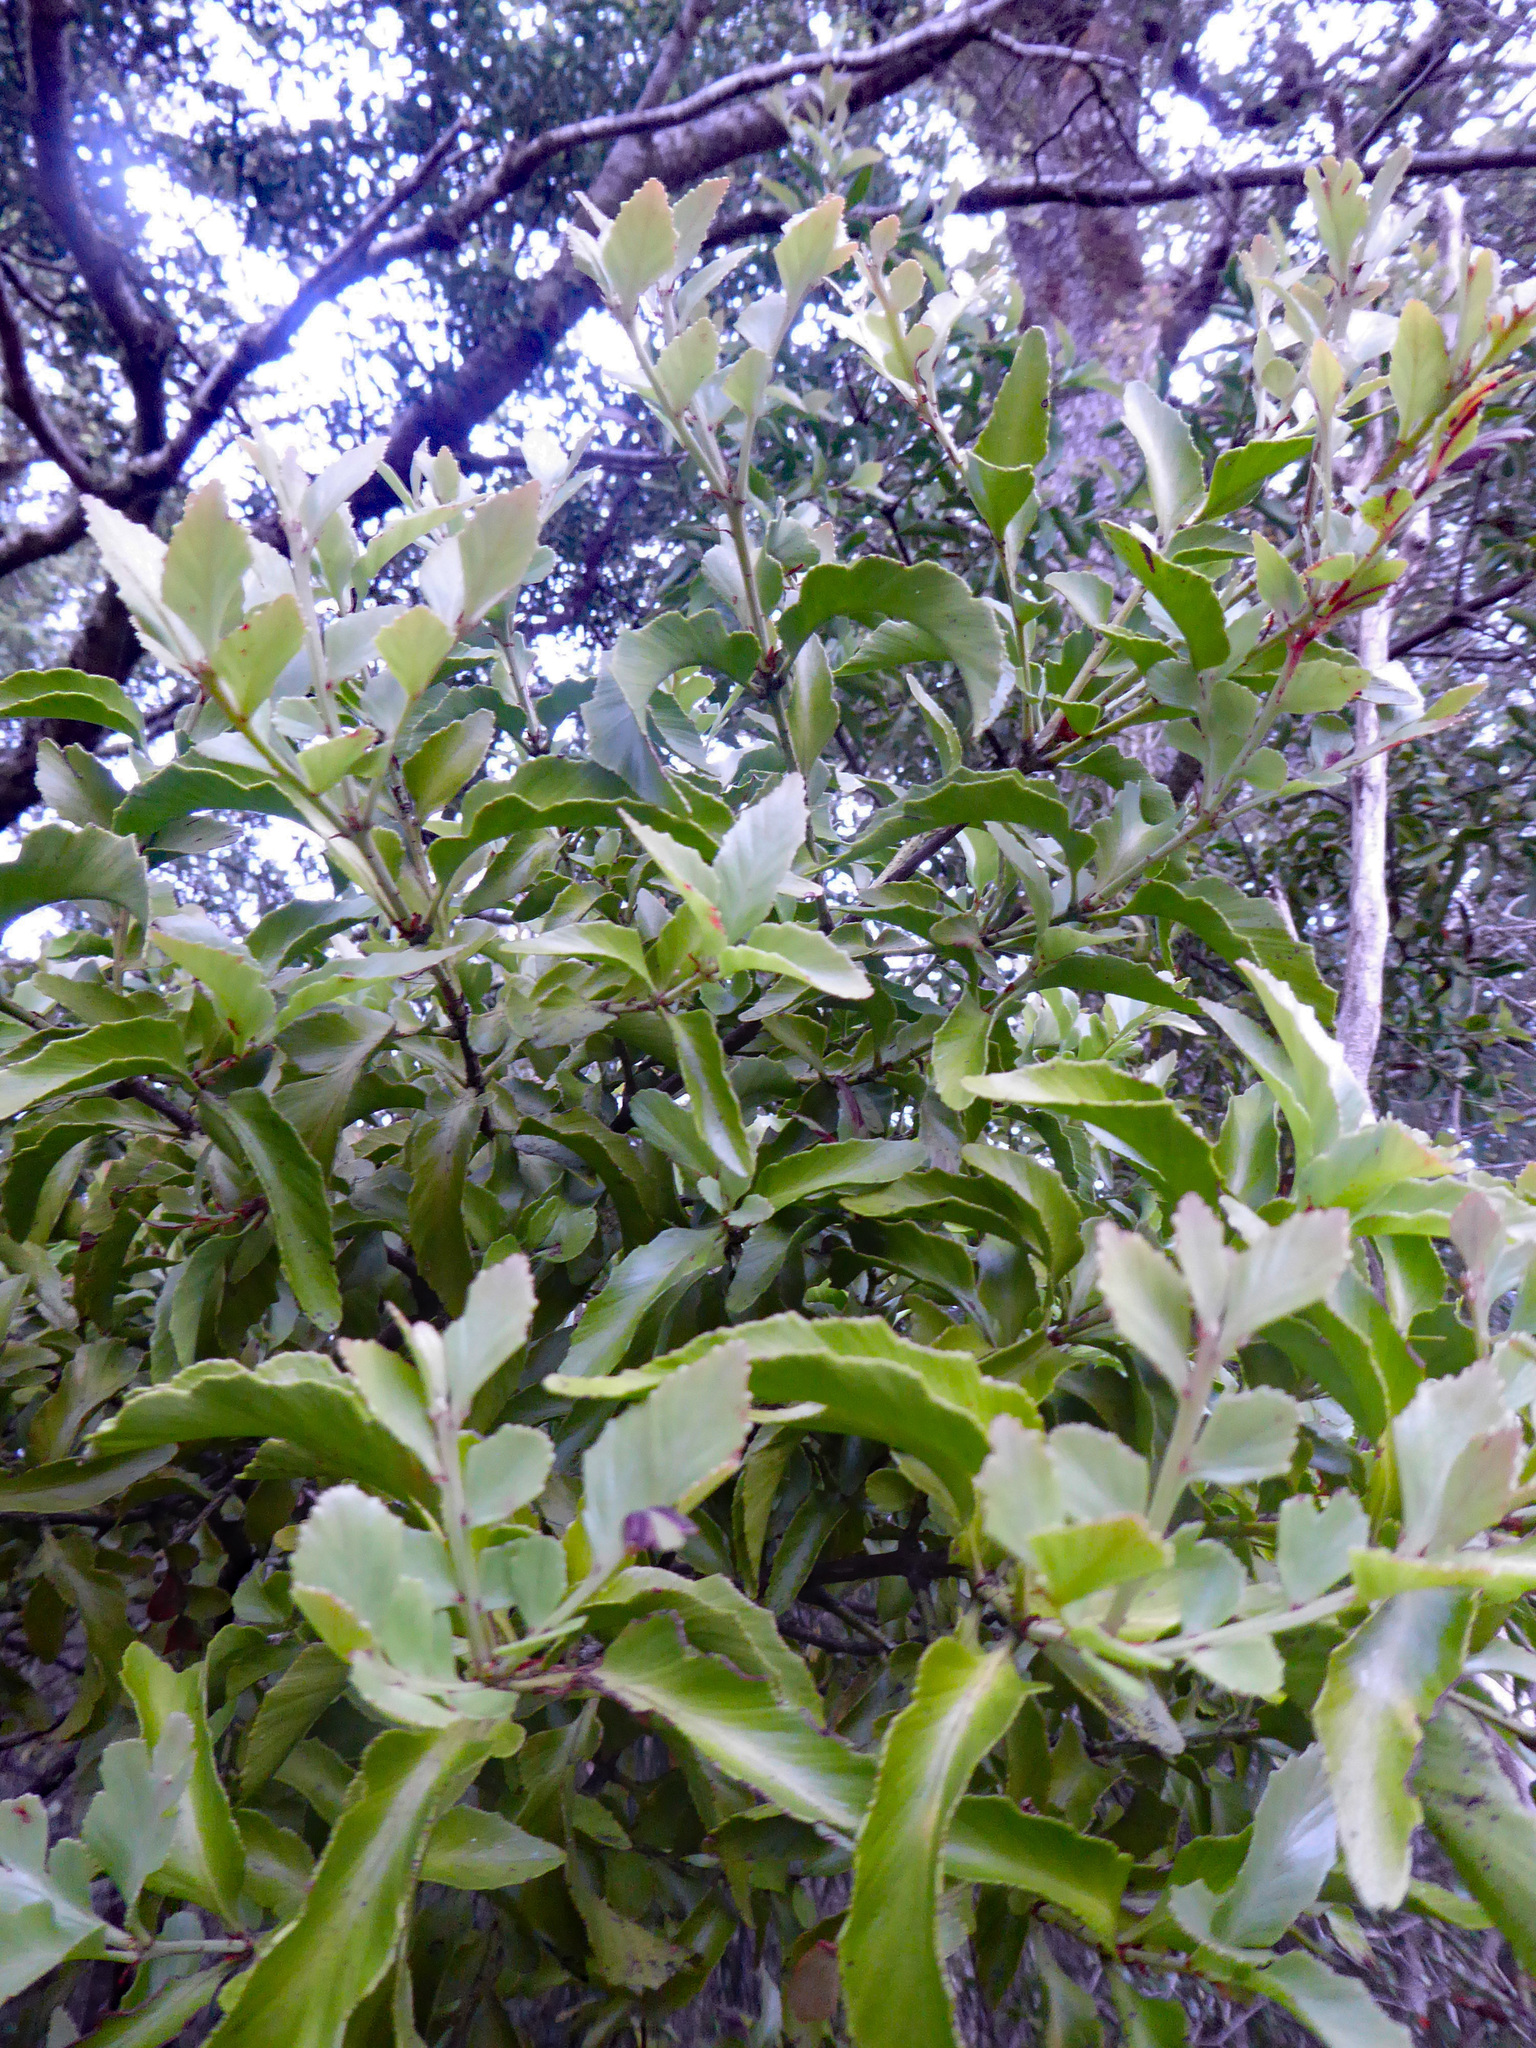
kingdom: Plantae
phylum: Tracheophyta
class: Pinopsida
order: Pinales
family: Phyllocladaceae
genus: Phyllocladus
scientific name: Phyllocladus trichomanoides
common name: Celery pine
